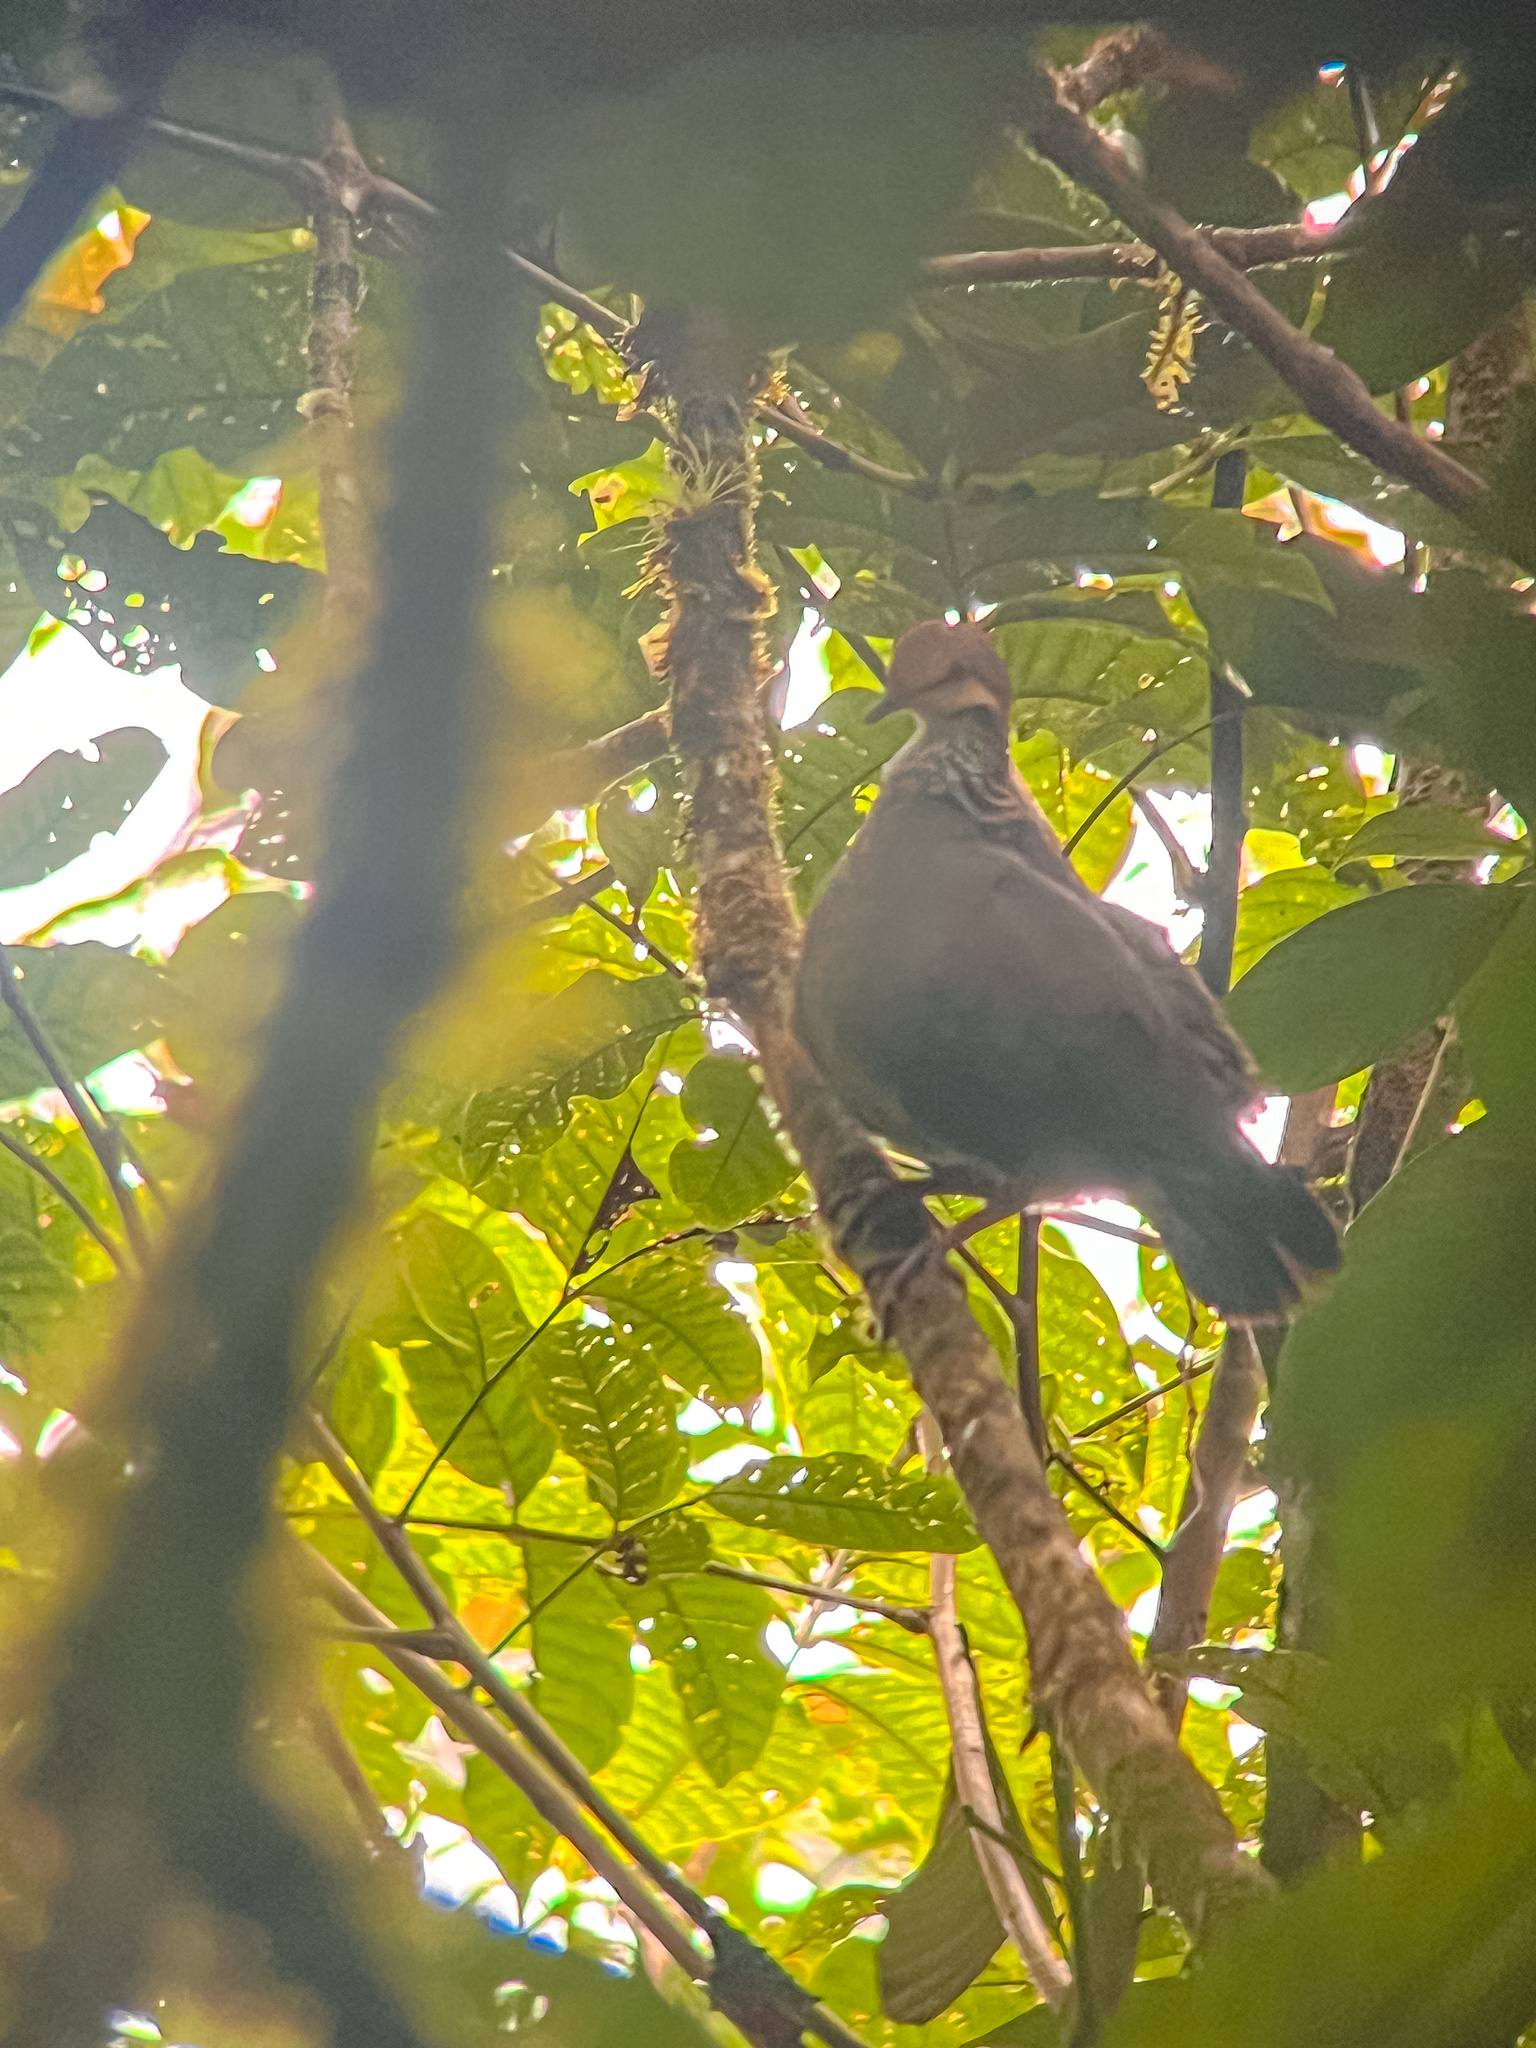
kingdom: Animalia
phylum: Chordata
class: Aves
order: Columbiformes
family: Columbidae
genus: Zentrygon
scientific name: Zentrygon goldmani
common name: Russet-crowned quail-dove
